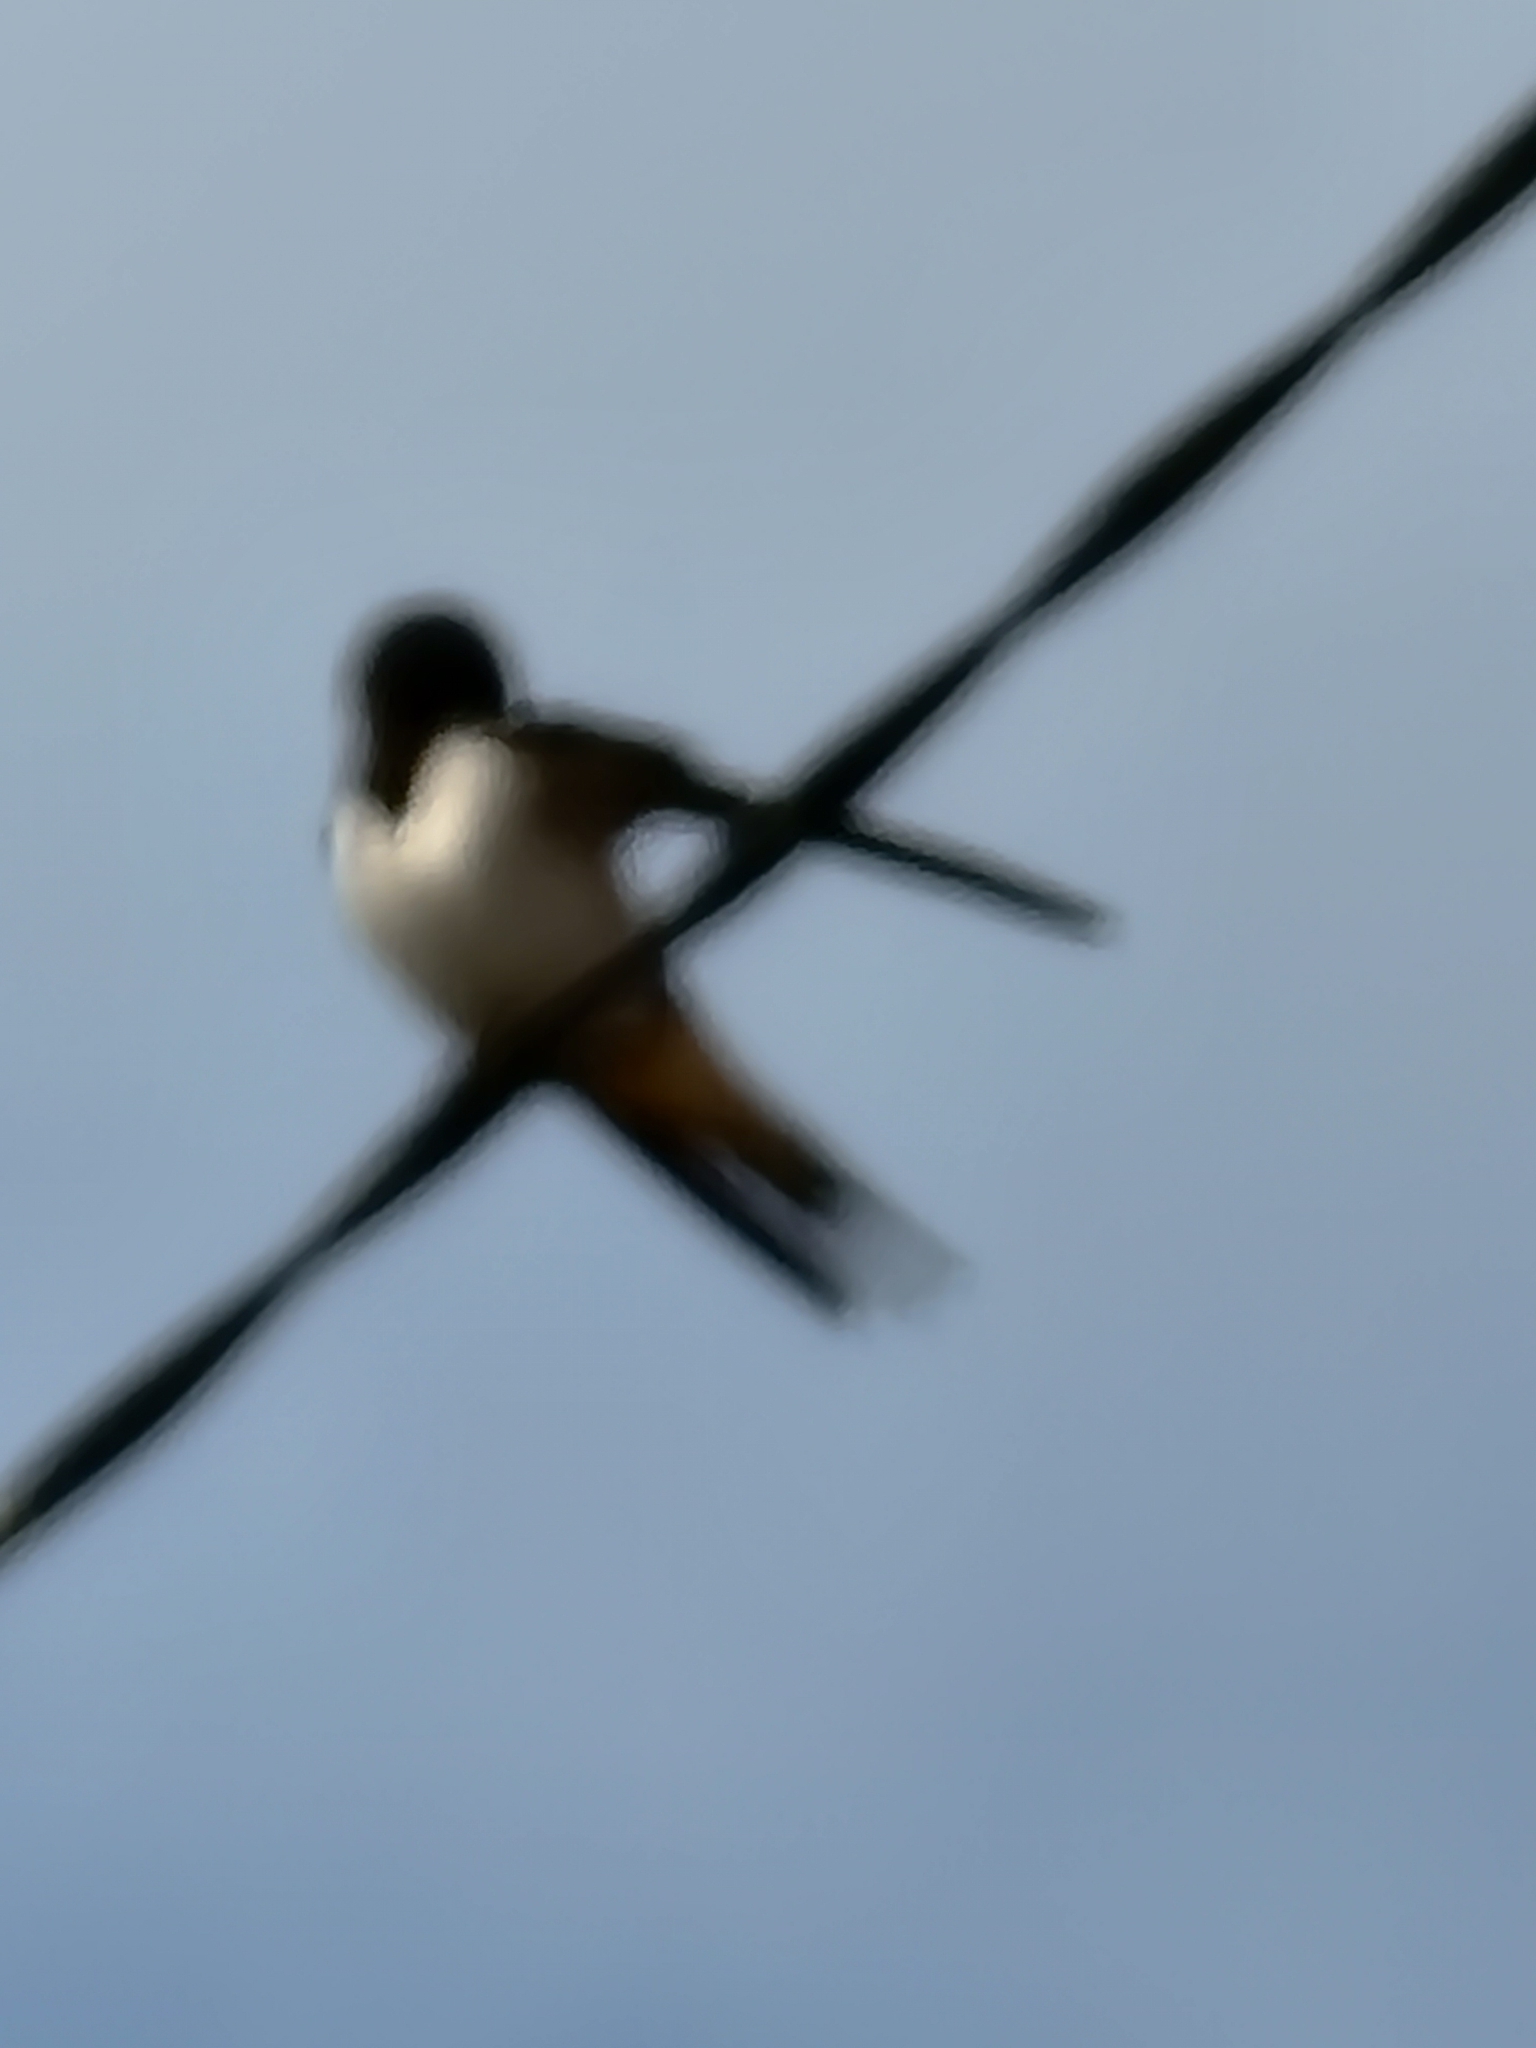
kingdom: Animalia
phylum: Chordata
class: Aves
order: Passeriformes
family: Hirundinidae
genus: Hirundo
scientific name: Hirundo rustica
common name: Barn swallow
